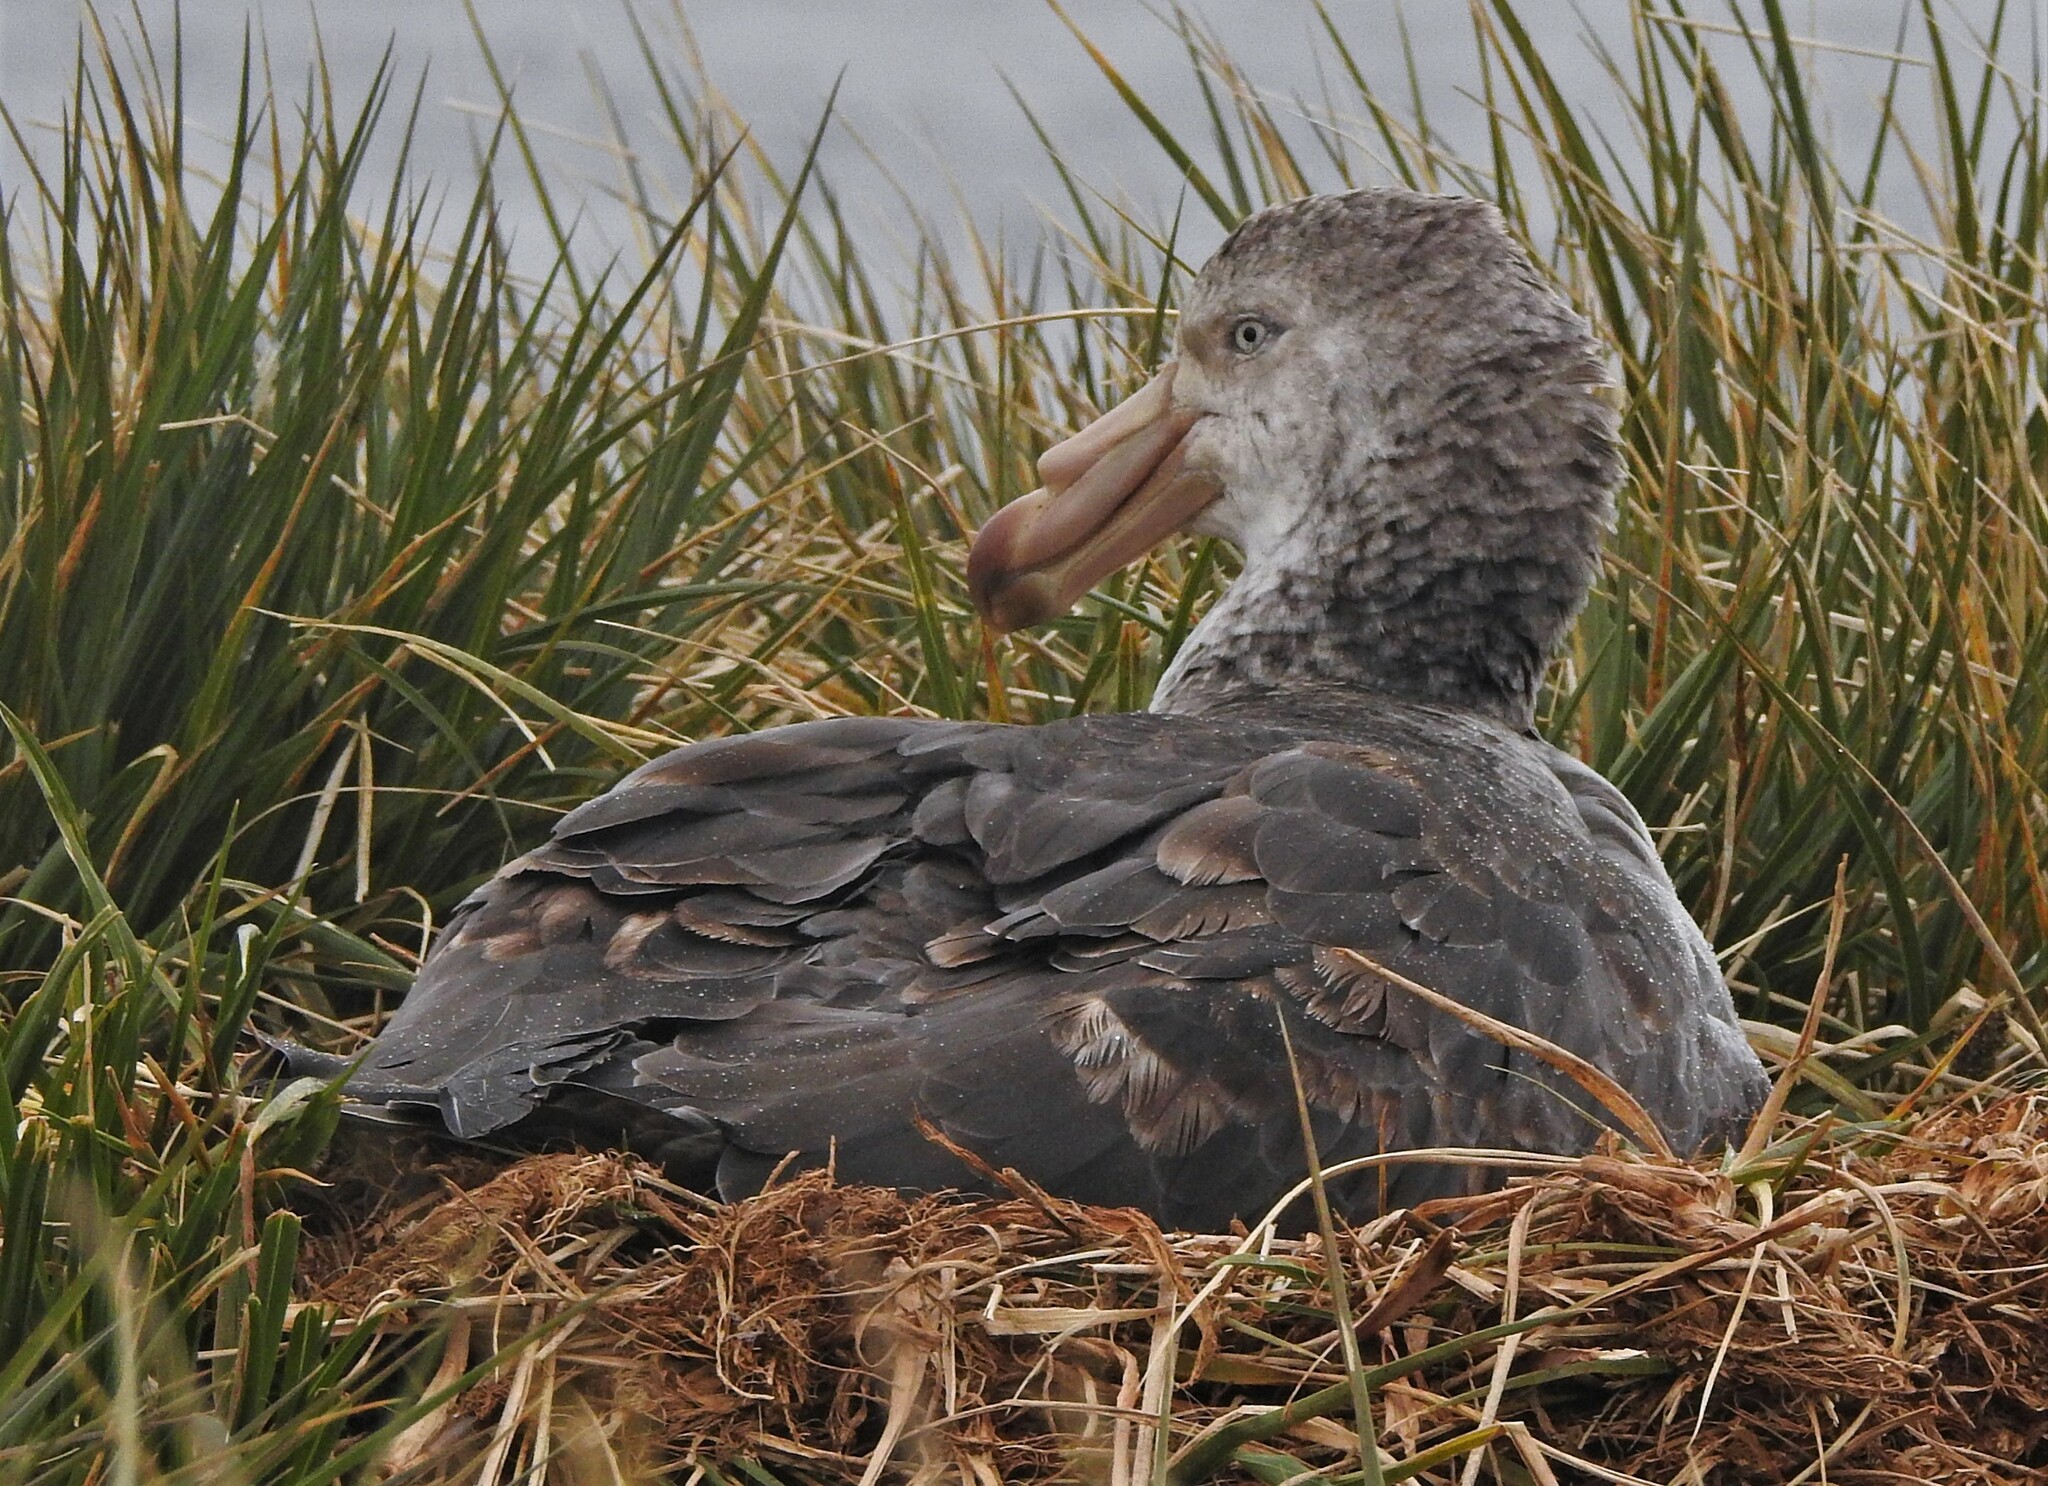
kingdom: Animalia
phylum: Chordata
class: Aves
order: Procellariiformes
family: Procellariidae
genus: Macronectes
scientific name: Macronectes halli
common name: Northern giant petrel
